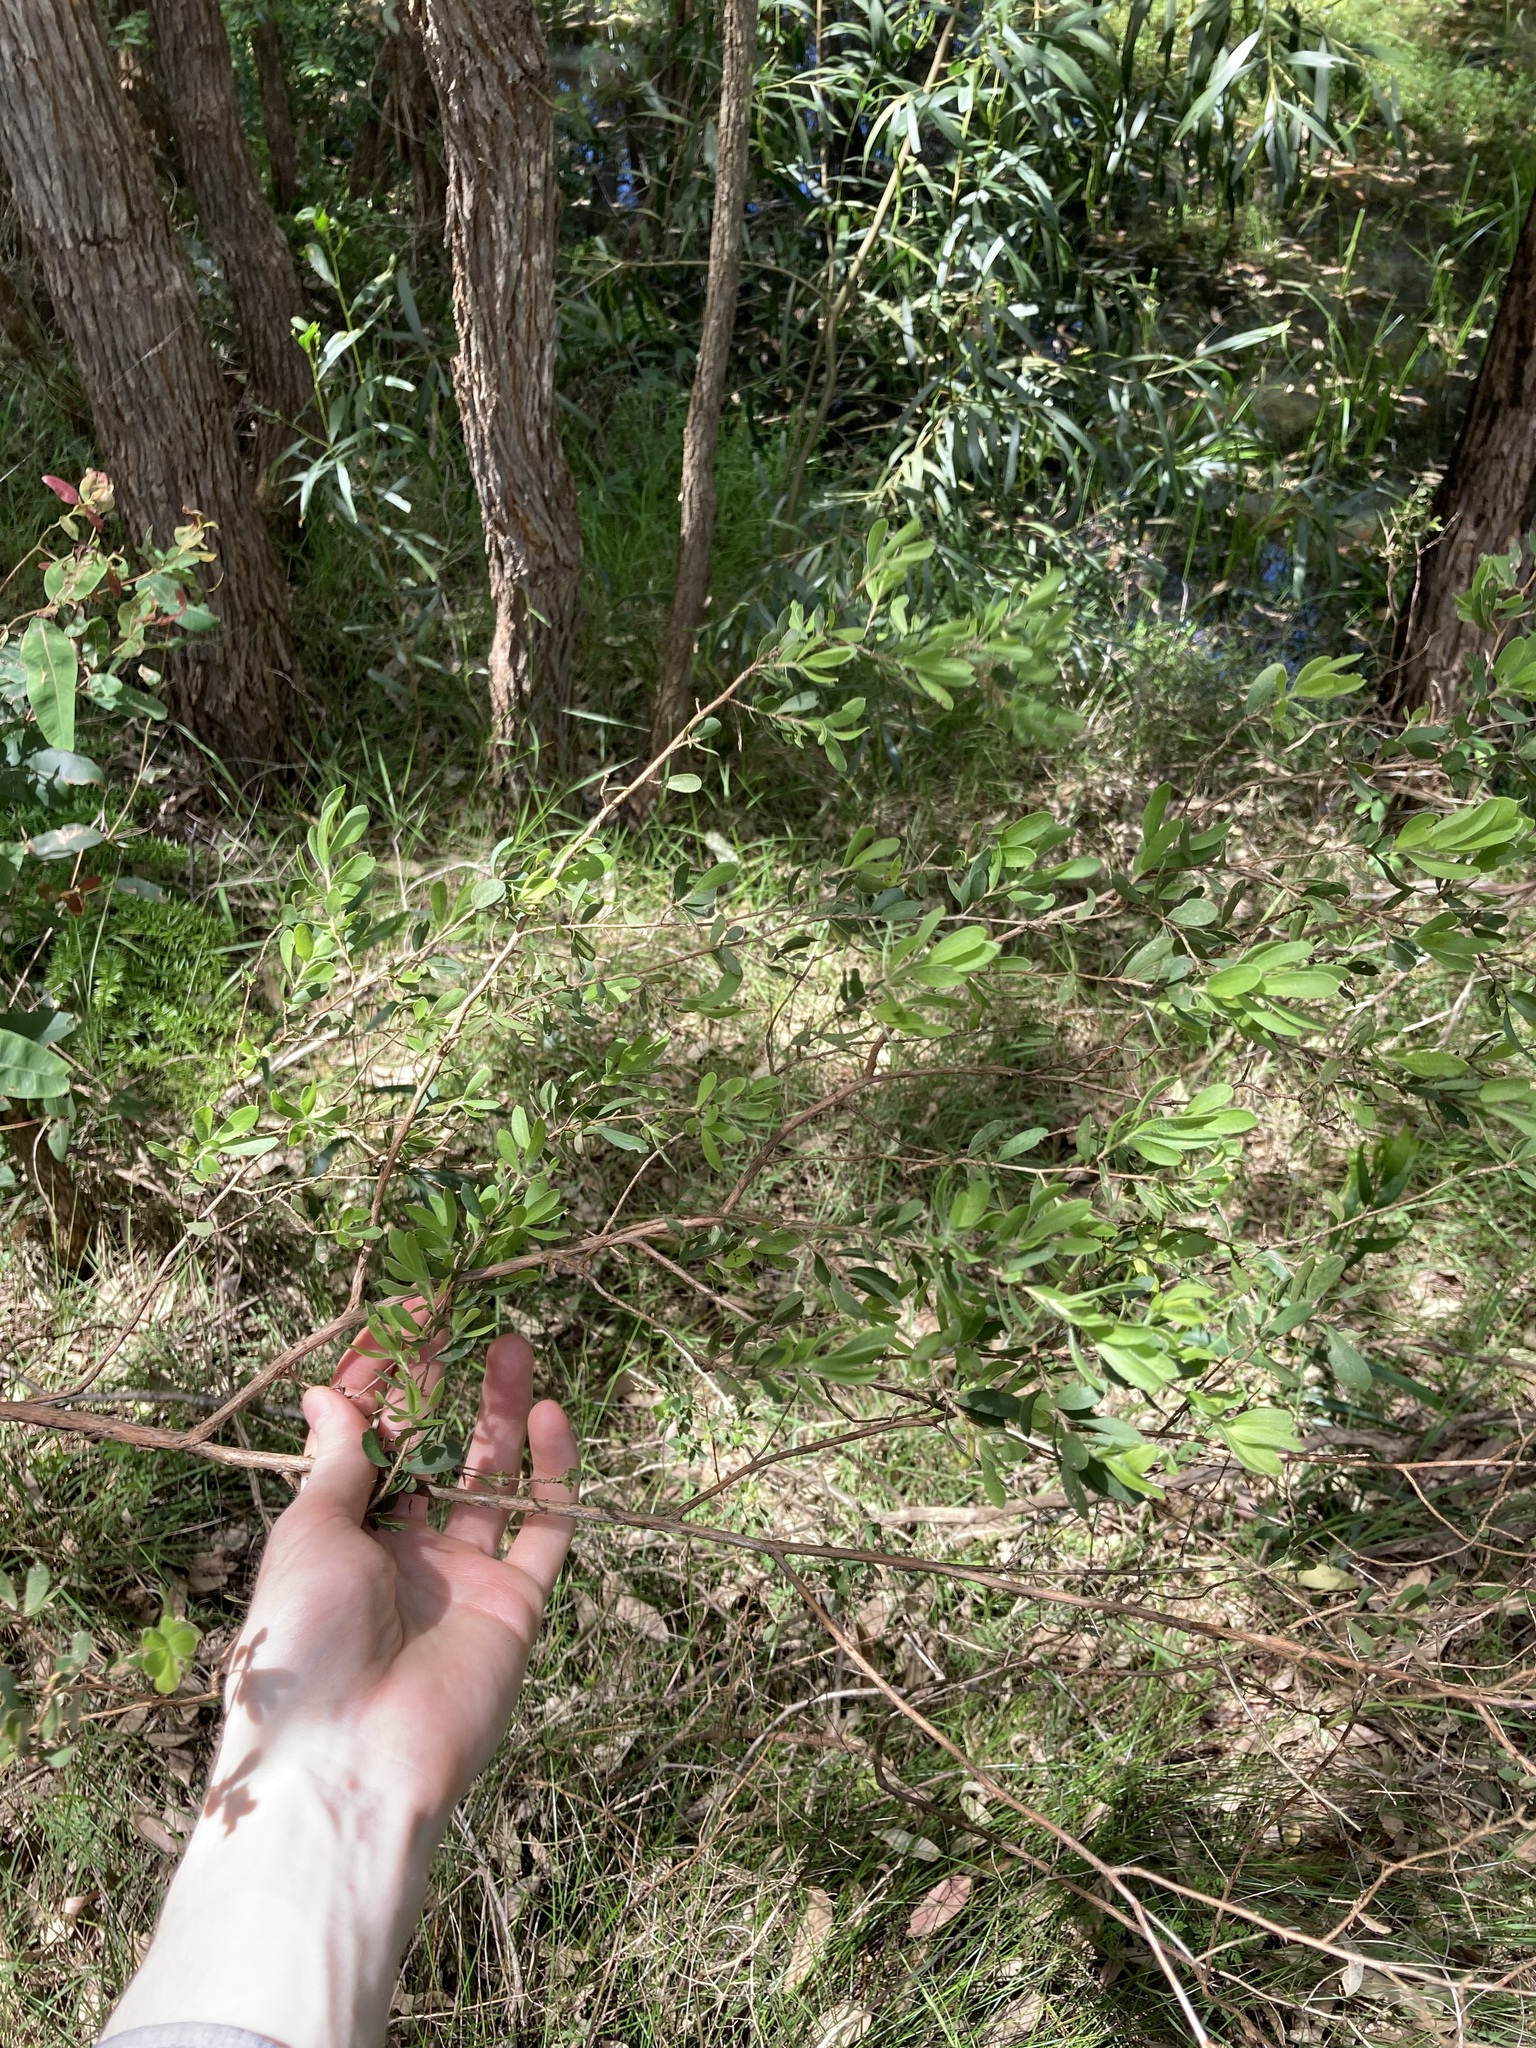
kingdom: Plantae
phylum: Tracheophyta
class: Magnoliopsida
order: Myrtales
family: Myrtaceae
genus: Leptospermum
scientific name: Leptospermum trinervium
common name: Flaky-barked tea-tree
